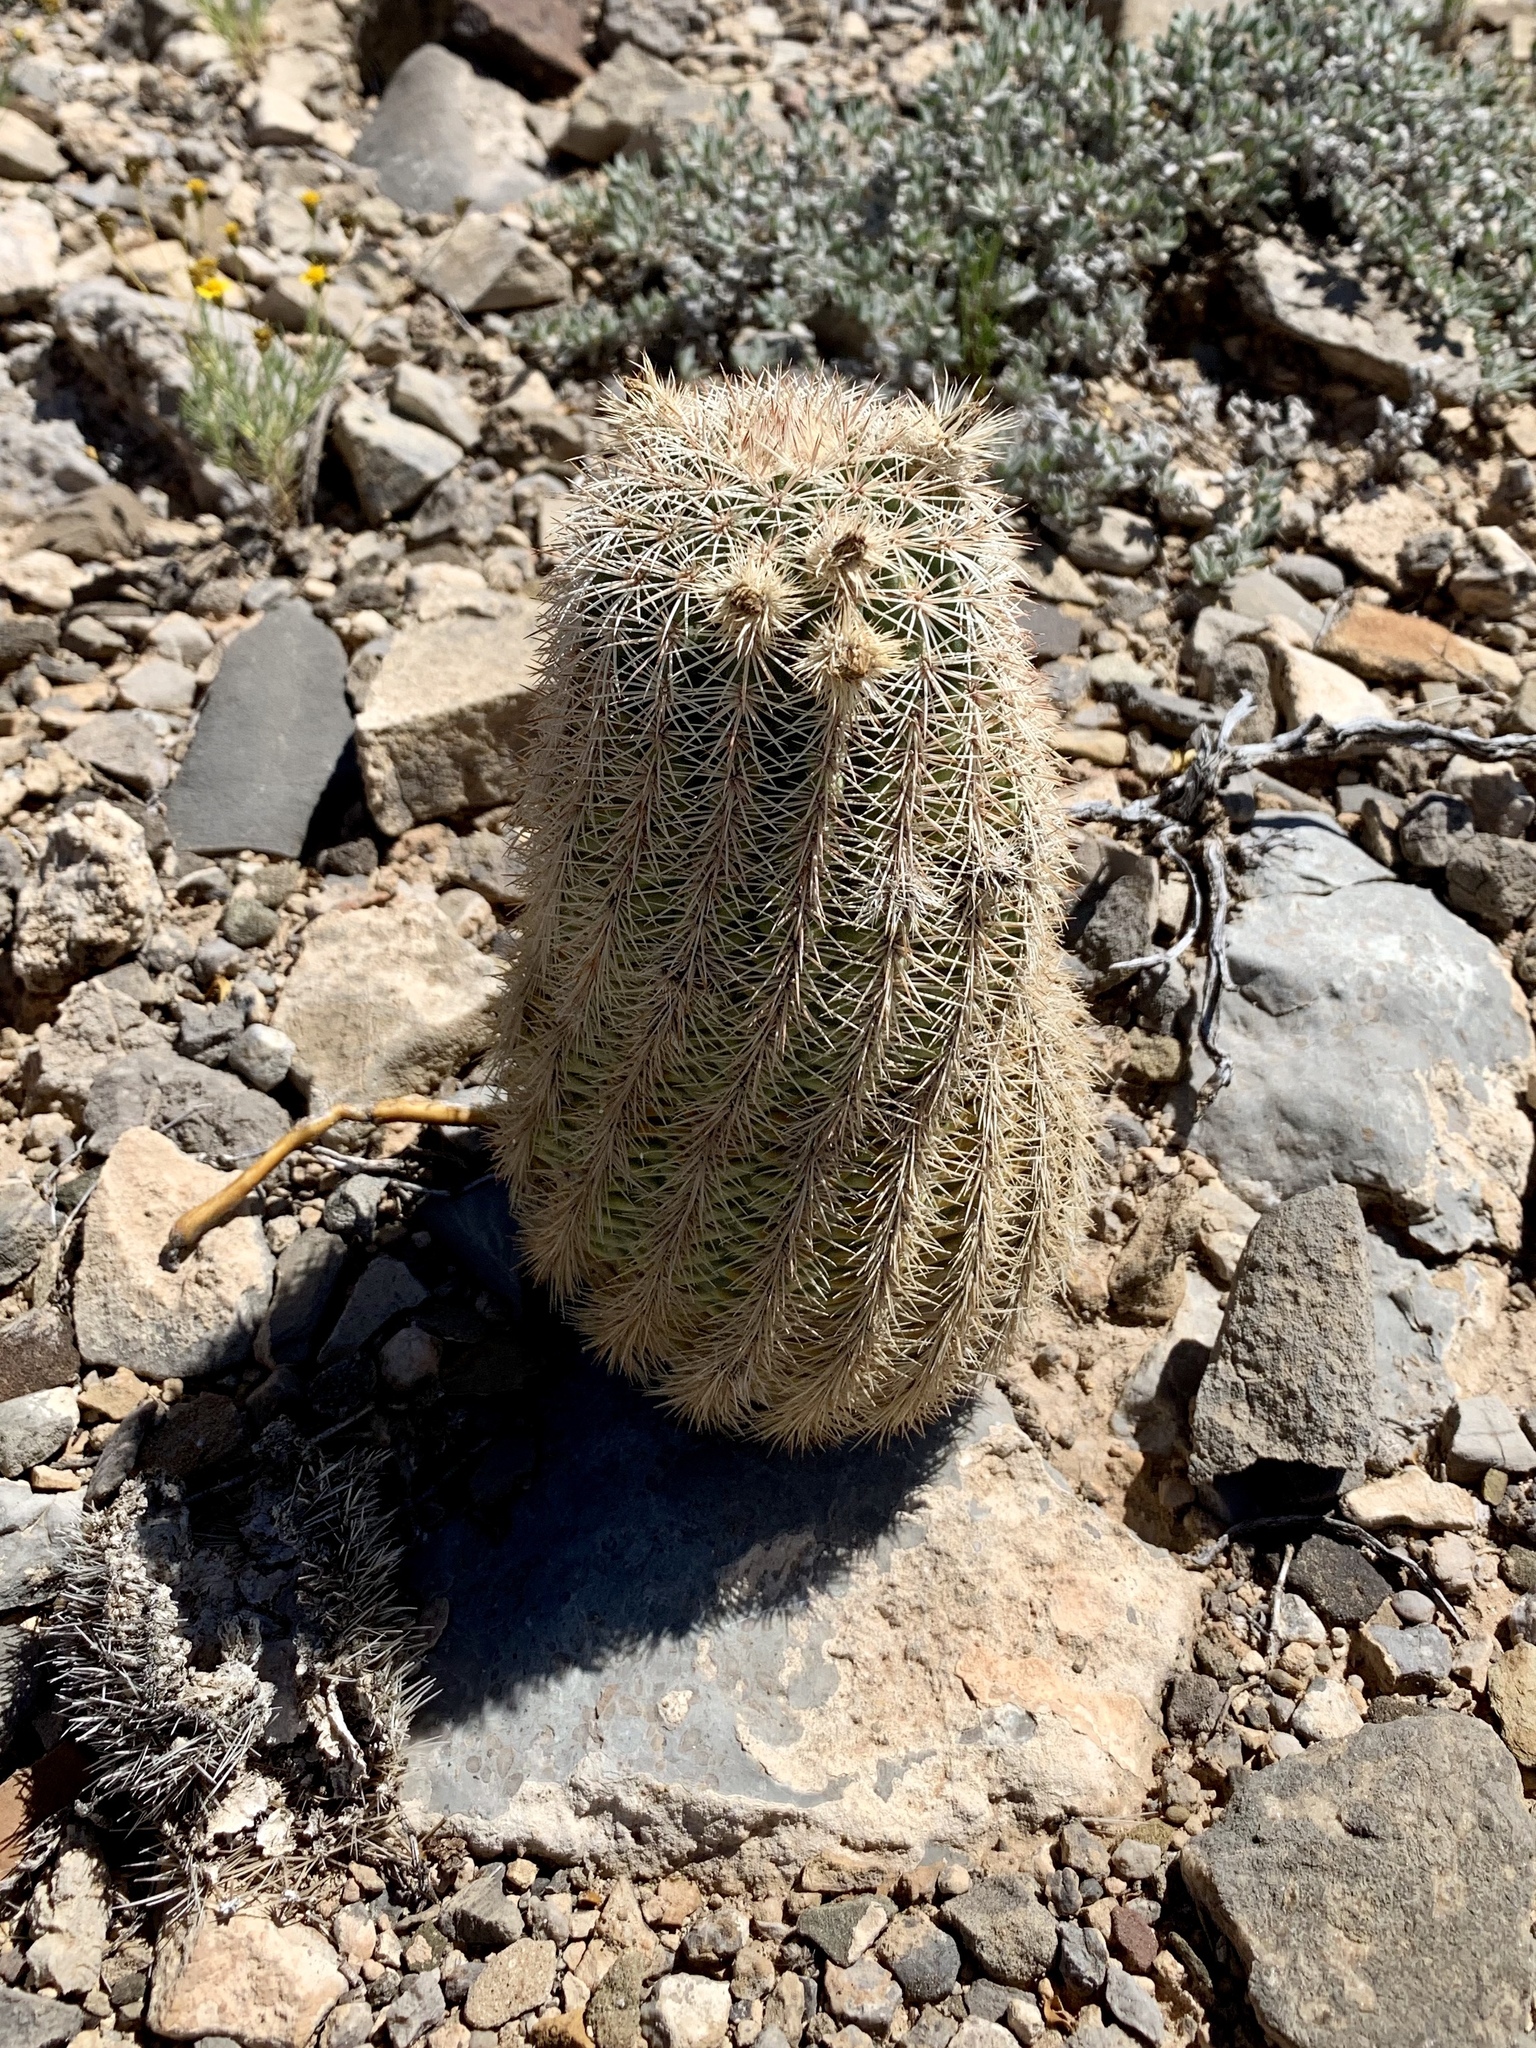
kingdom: Plantae
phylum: Tracheophyta
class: Magnoliopsida
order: Caryophyllales
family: Cactaceae
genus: Echinocereus
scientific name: Echinocereus dasyacanthus
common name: Spiny hedgehog cactus
